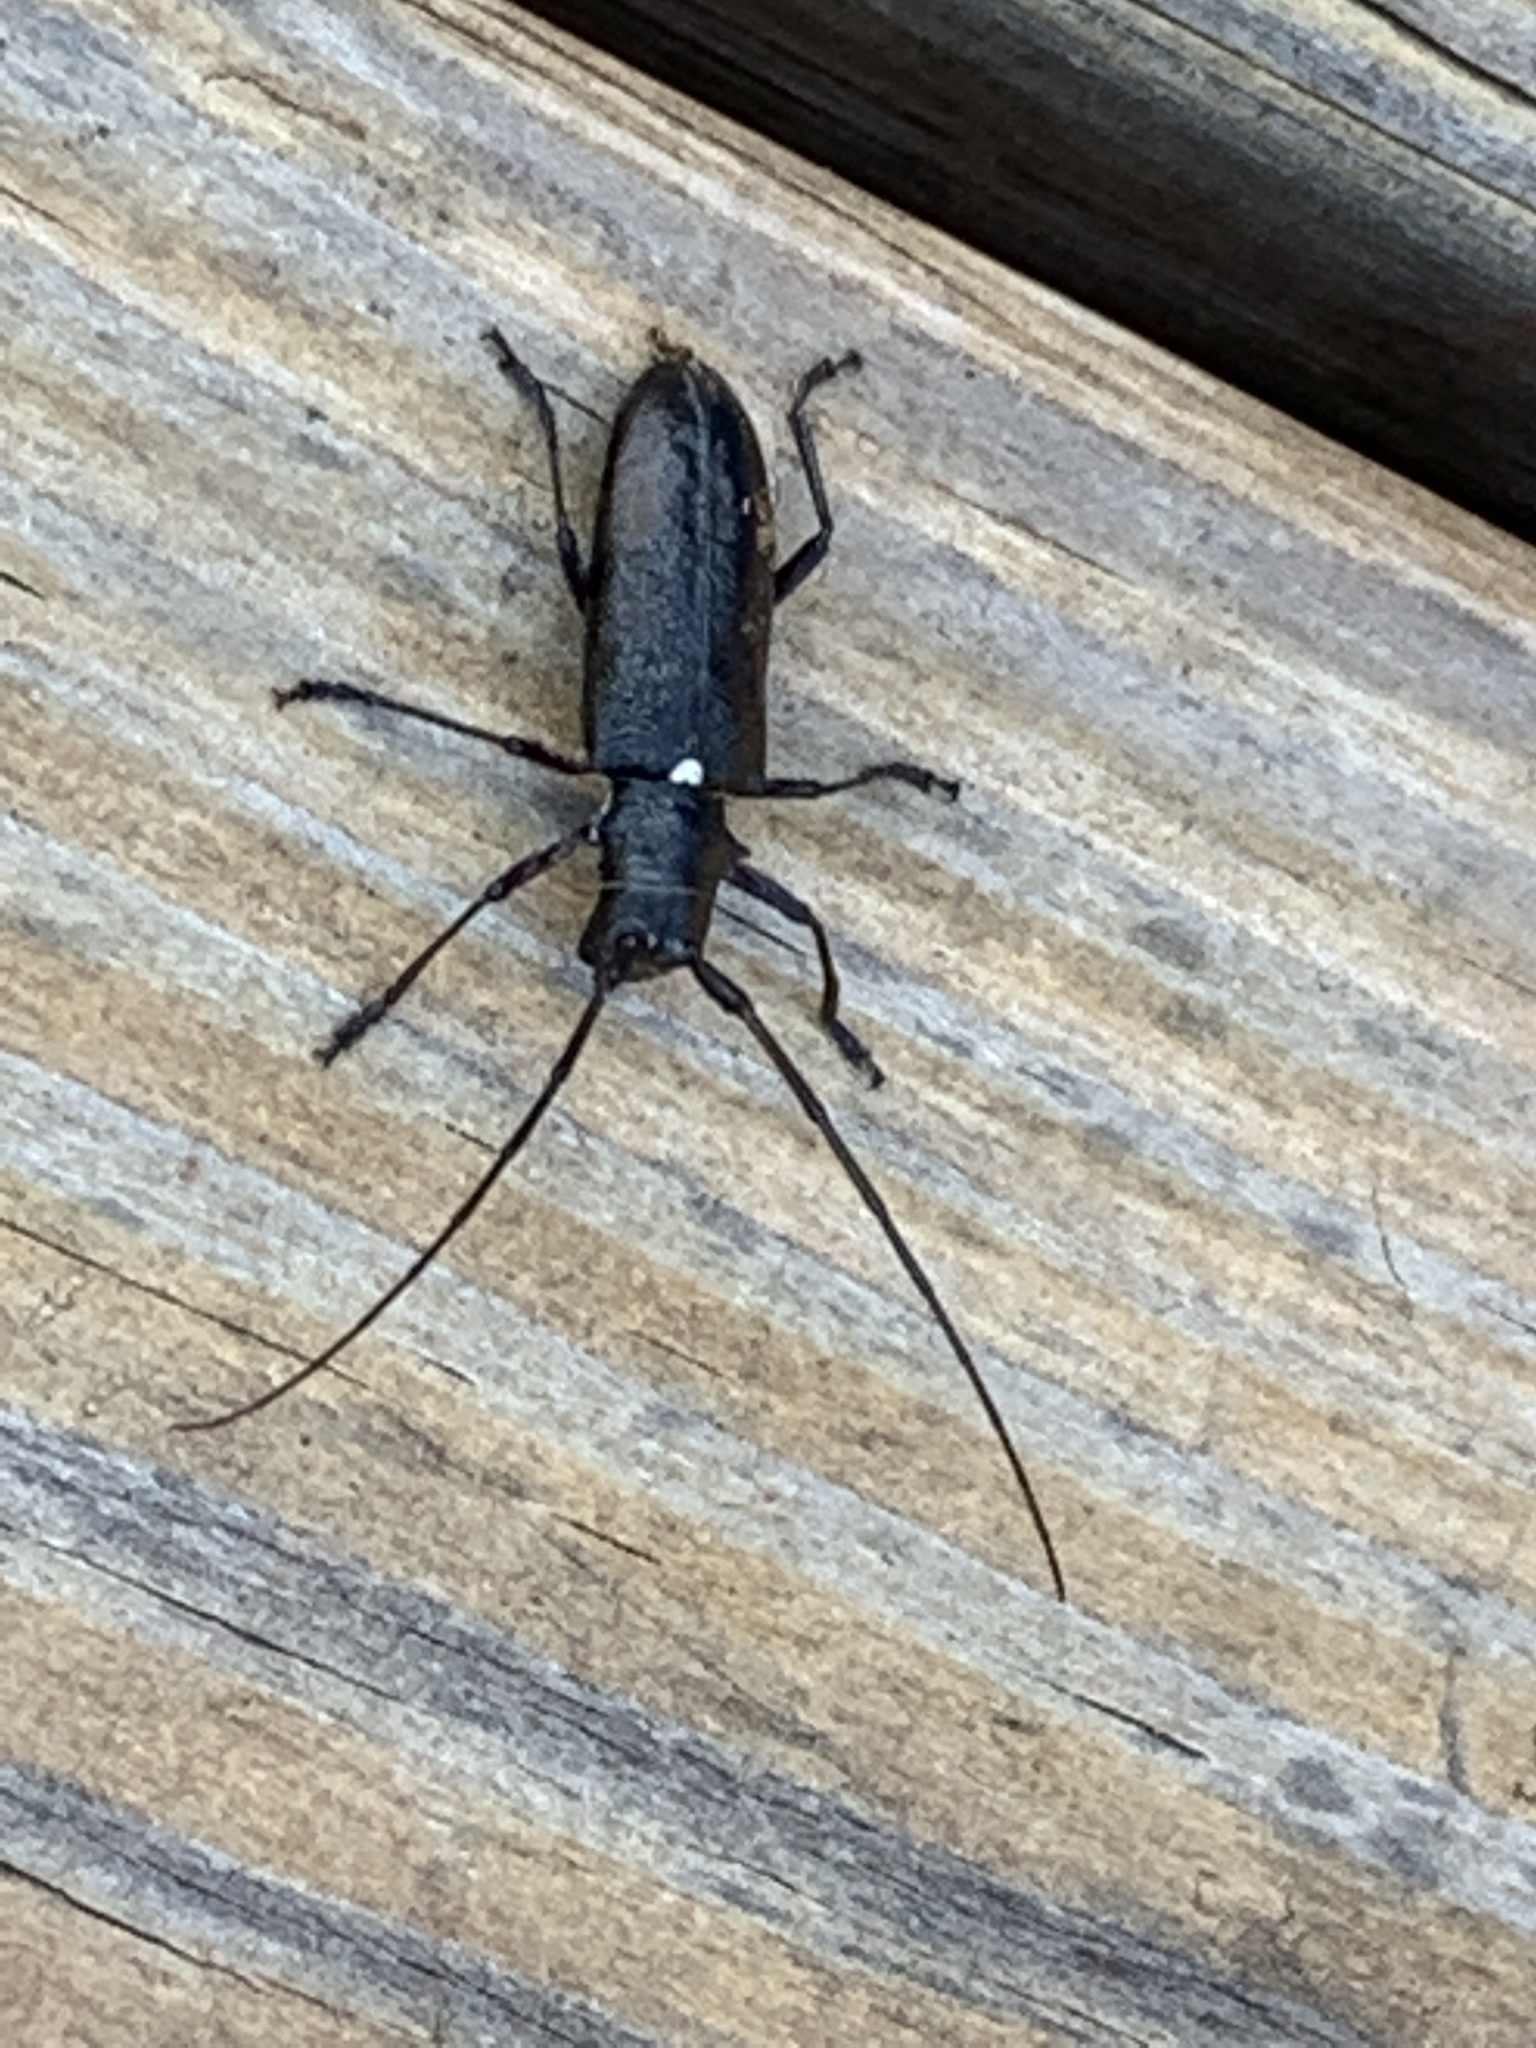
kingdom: Animalia
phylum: Arthropoda
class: Insecta
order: Coleoptera
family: Cerambycidae
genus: Monochamus
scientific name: Monochamus scutellatus
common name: White-spotted sawyer beetle
